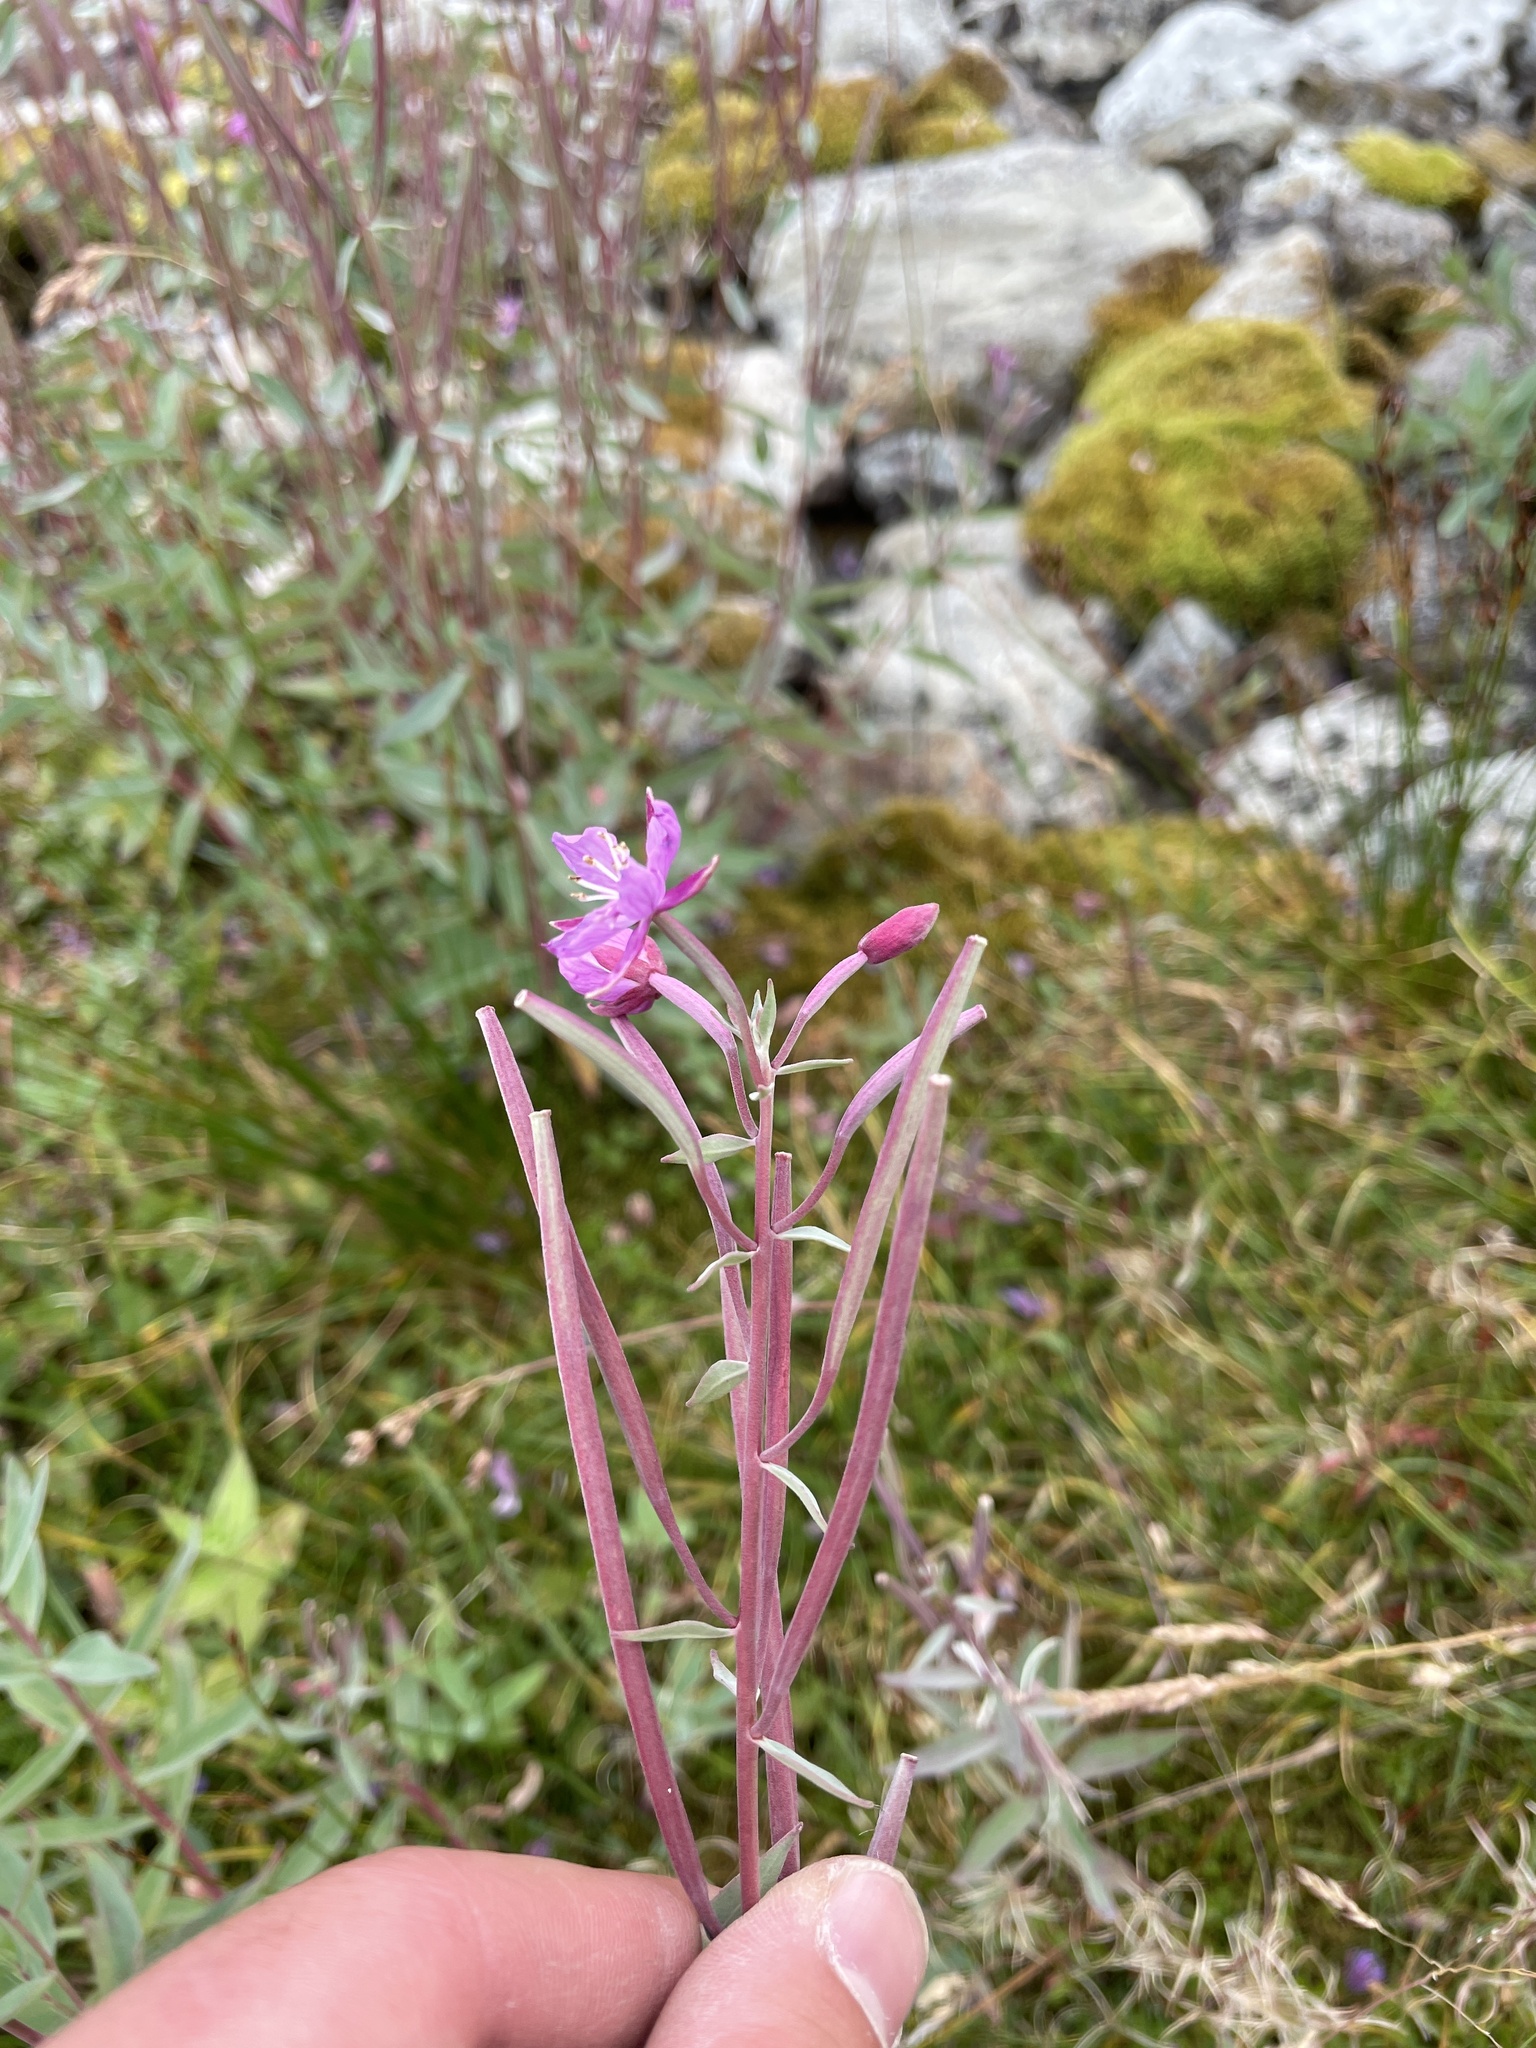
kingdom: Plantae
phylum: Tracheophyta
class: Magnoliopsida
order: Myrtales
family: Onagraceae
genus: Chamaenerion
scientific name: Chamaenerion latifolium
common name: Dwarf fireweed
